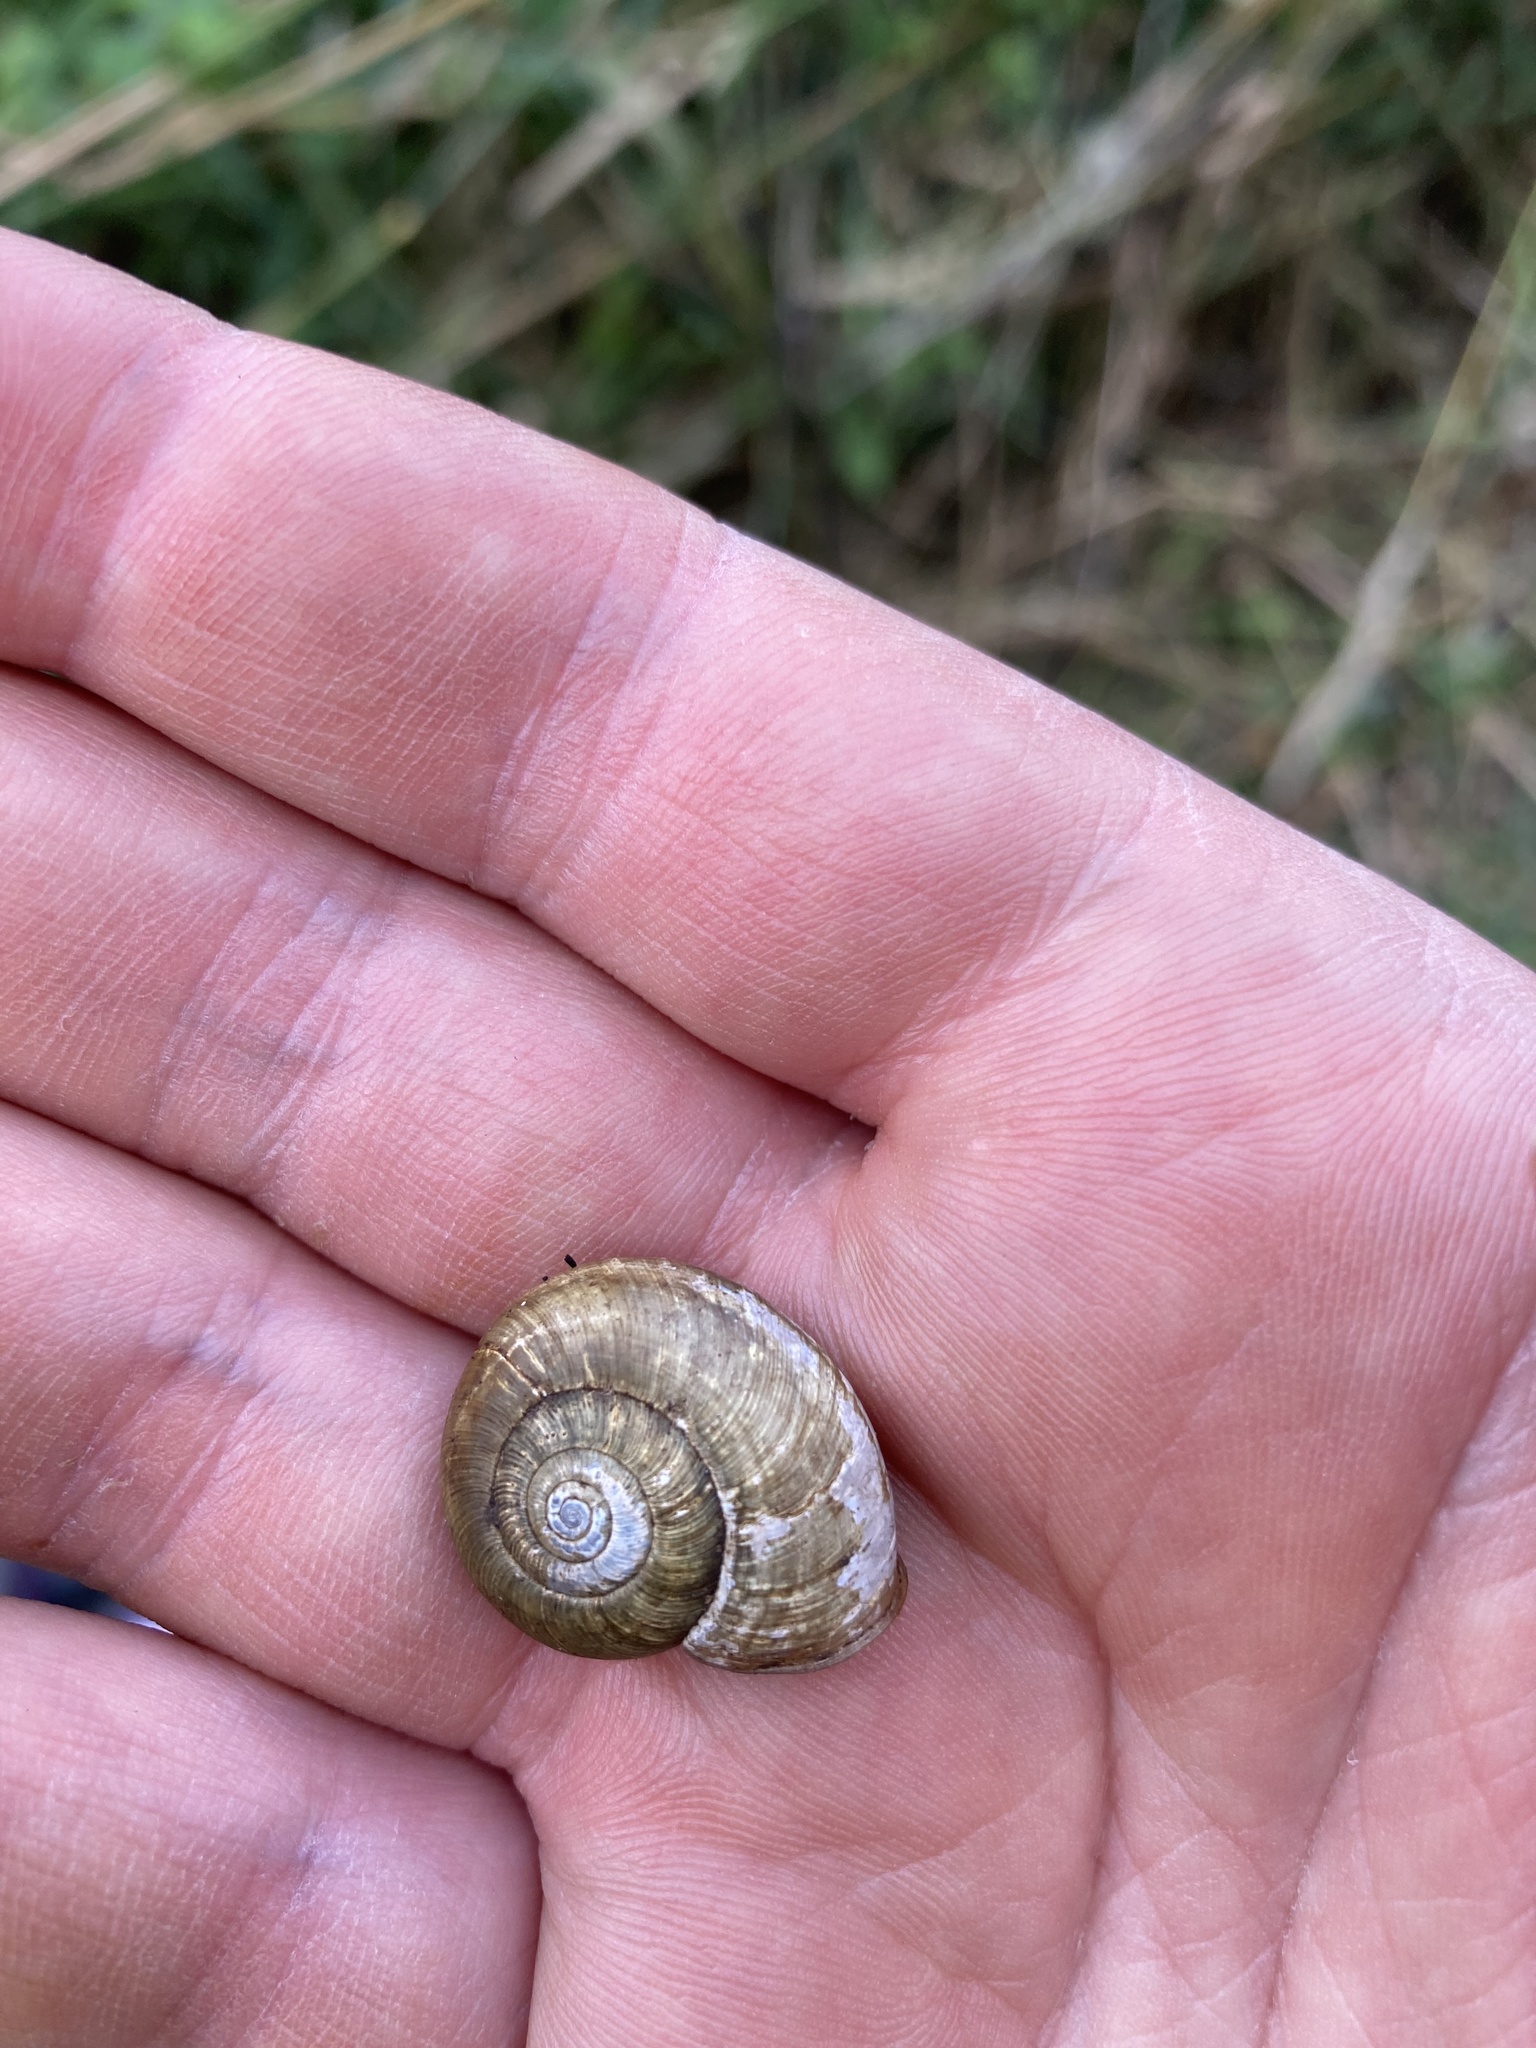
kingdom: Animalia
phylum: Mollusca
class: Gastropoda
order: Stylommatophora
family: Haplotrematidae
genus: Haplotrema
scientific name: Haplotrema vancouverense
